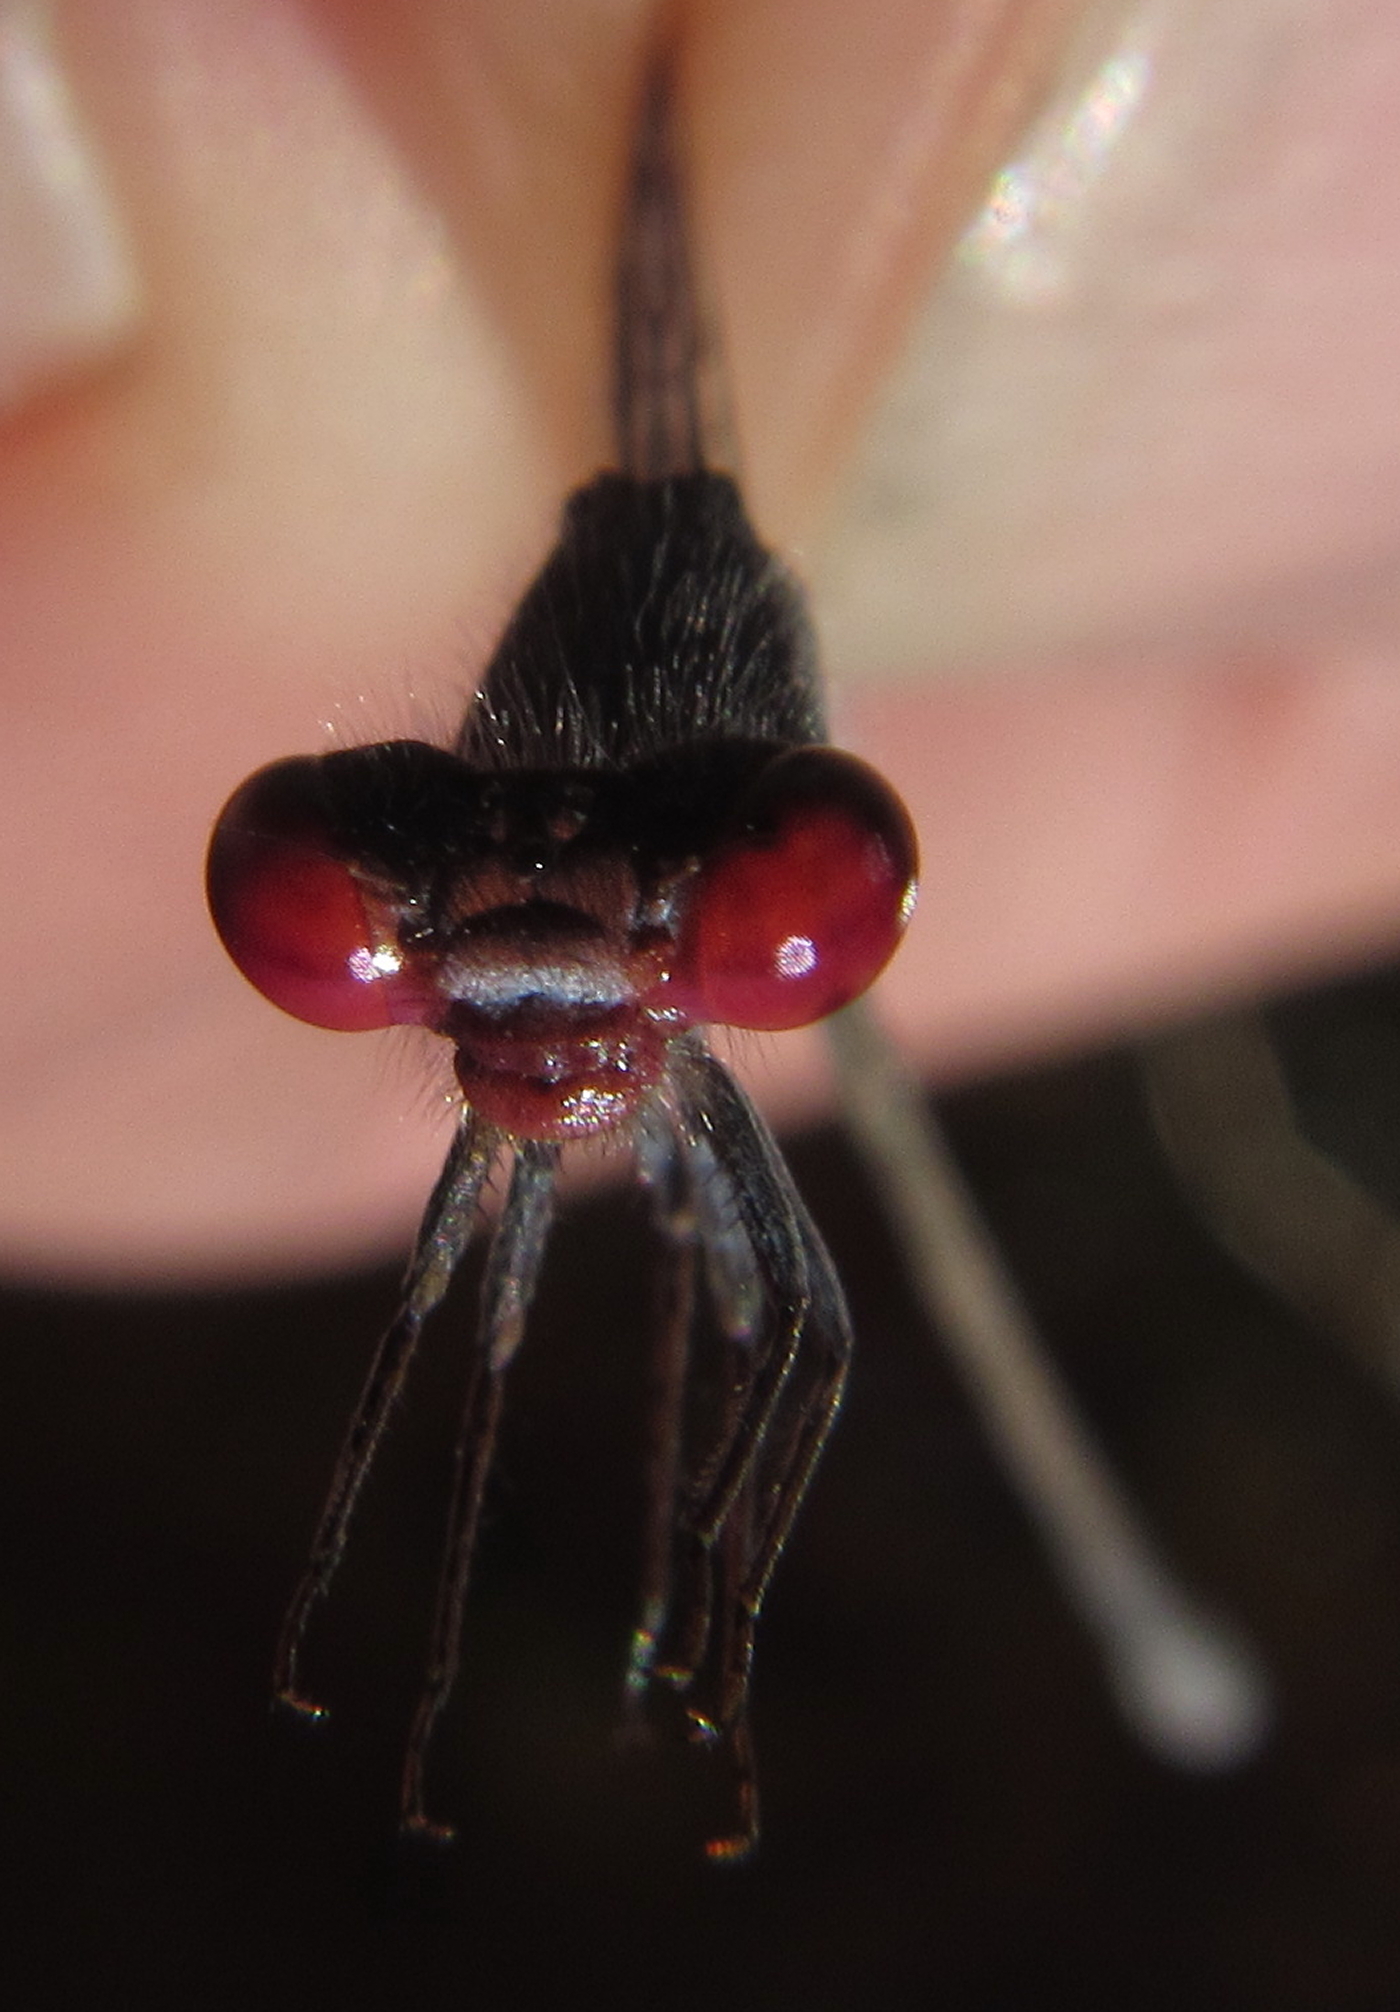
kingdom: Animalia
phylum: Arthropoda
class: Insecta
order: Odonata
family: Coenagrionidae
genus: Pseudagrion
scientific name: Pseudagrion sublacteum
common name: Cherry-eye sprite
